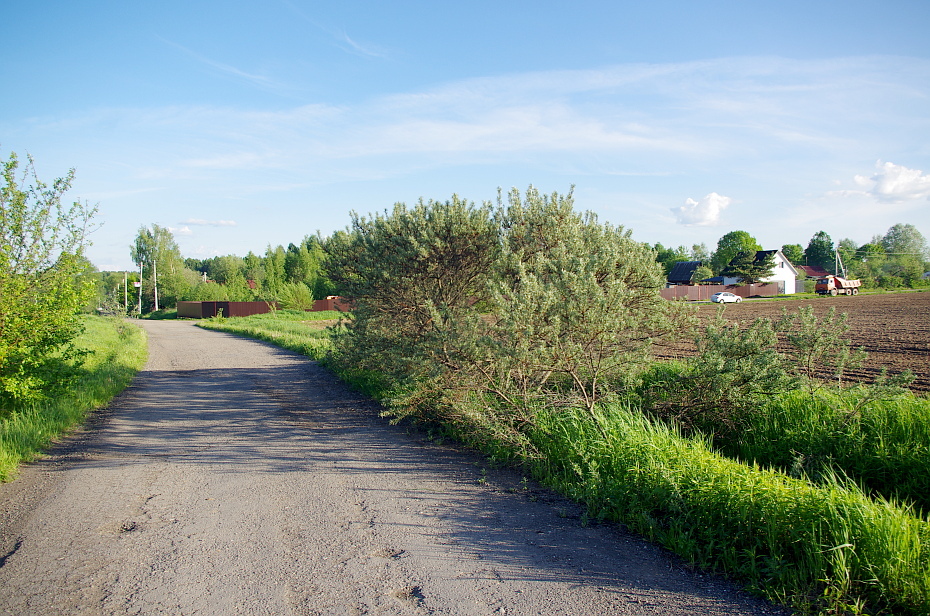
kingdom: Plantae
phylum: Tracheophyta
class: Magnoliopsida
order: Rosales
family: Elaeagnaceae
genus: Hippophae
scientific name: Hippophae rhamnoides
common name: Sea-buckthorn
